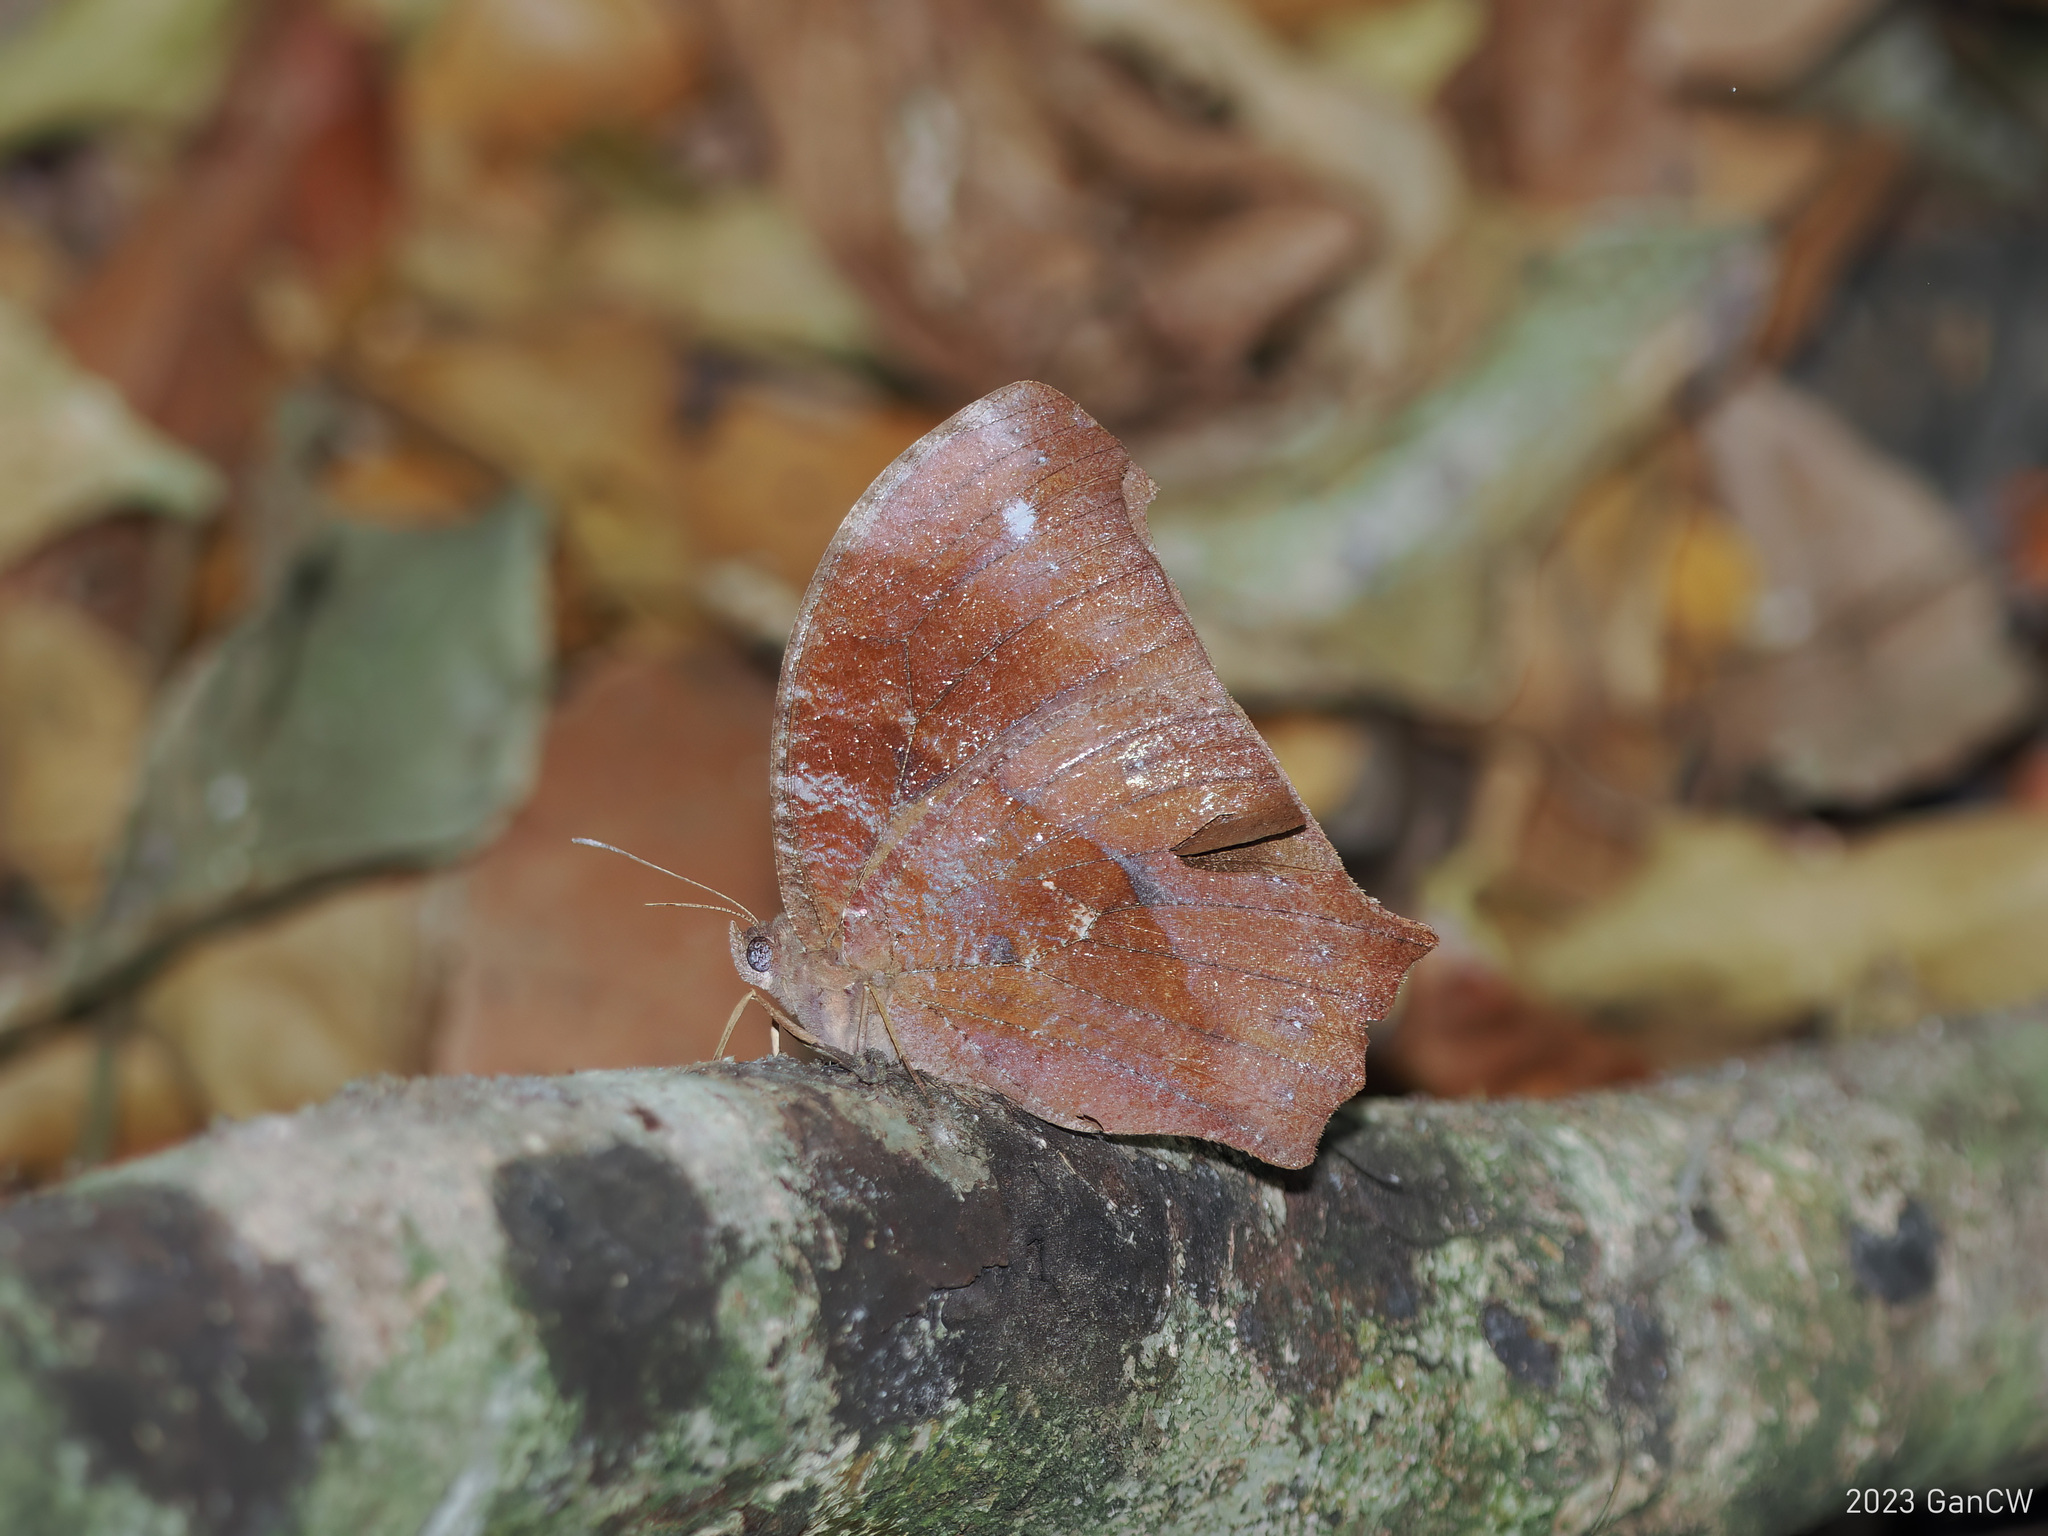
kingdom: Animalia
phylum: Arthropoda
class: Insecta
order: Lepidoptera
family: Nymphalidae
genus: Melanitis
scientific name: Melanitis phedima
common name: Dark evening brown
